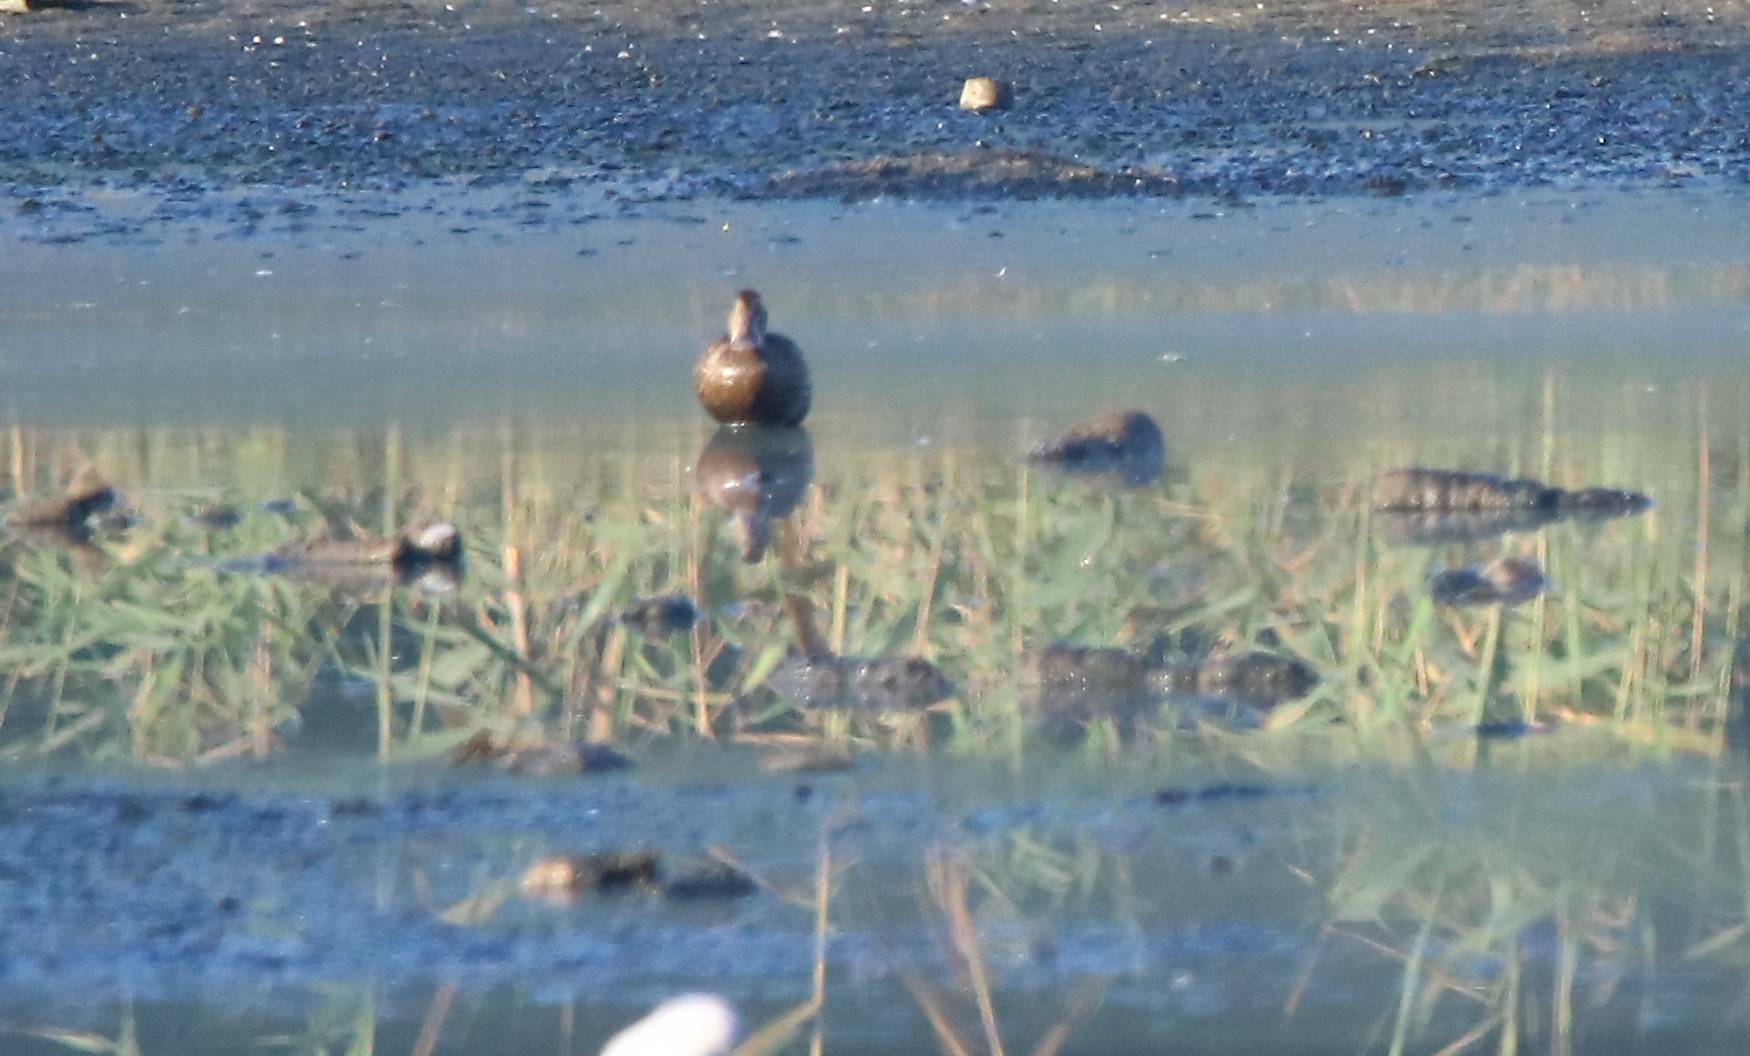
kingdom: Animalia
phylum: Chordata
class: Aves
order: Anseriformes
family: Anatidae
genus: Anas
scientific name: Anas platyrhynchos
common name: Mallard
